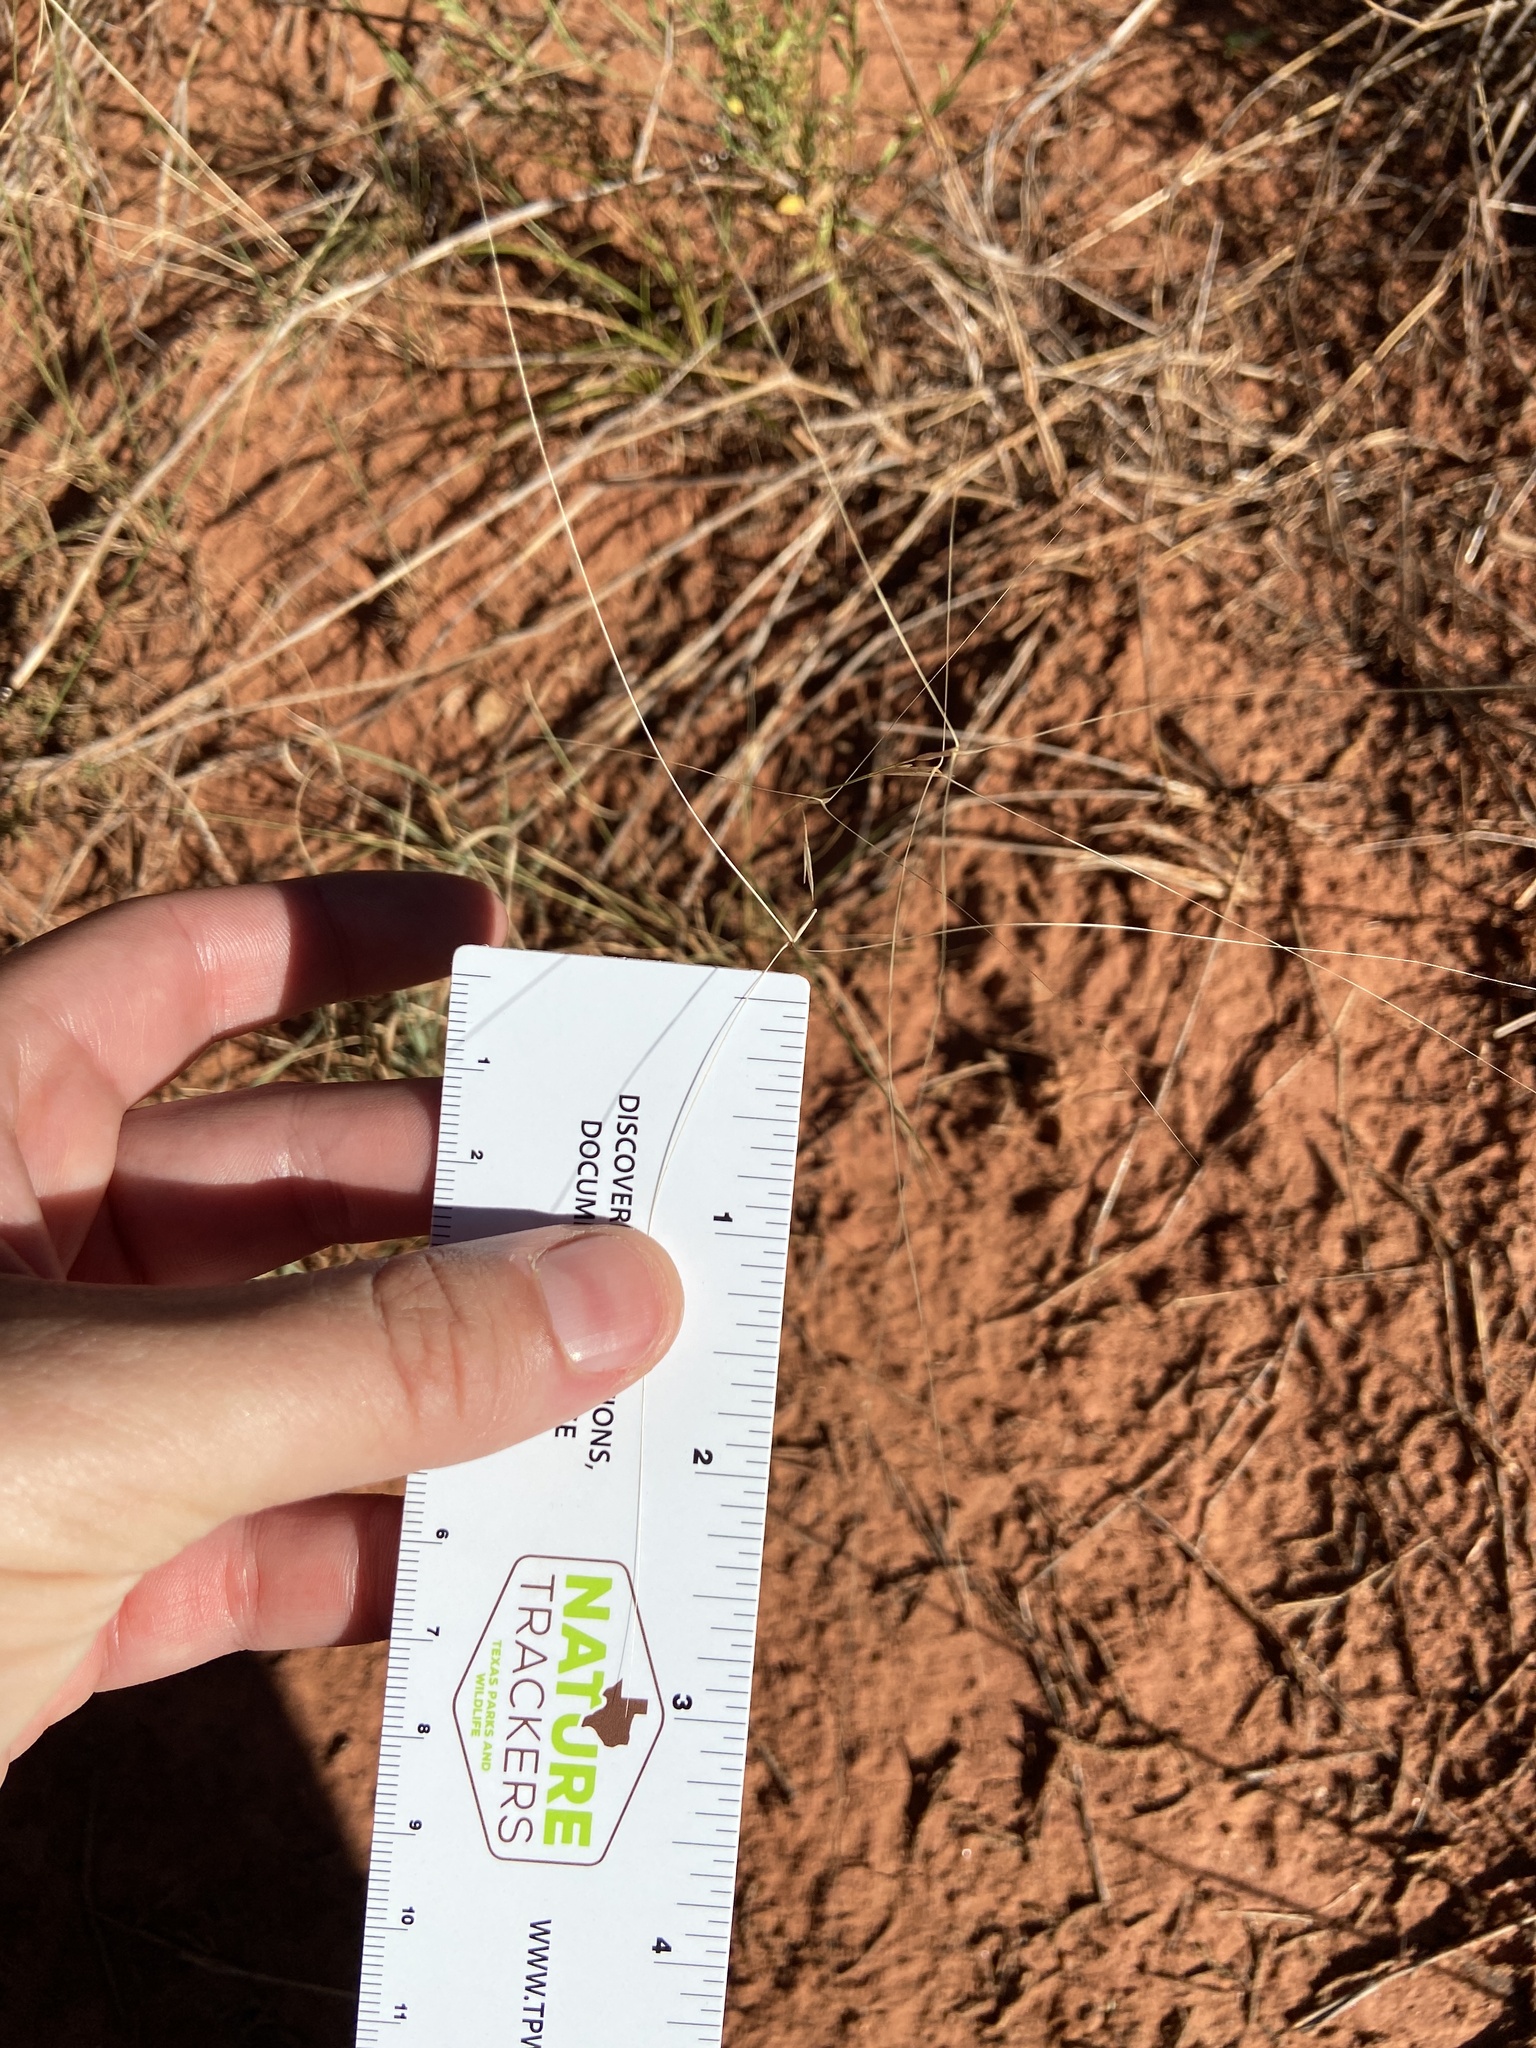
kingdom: Plantae
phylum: Tracheophyta
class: Liliopsida
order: Poales
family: Poaceae
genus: Aristida
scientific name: Aristida oligantha
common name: Few-flowered aristida
